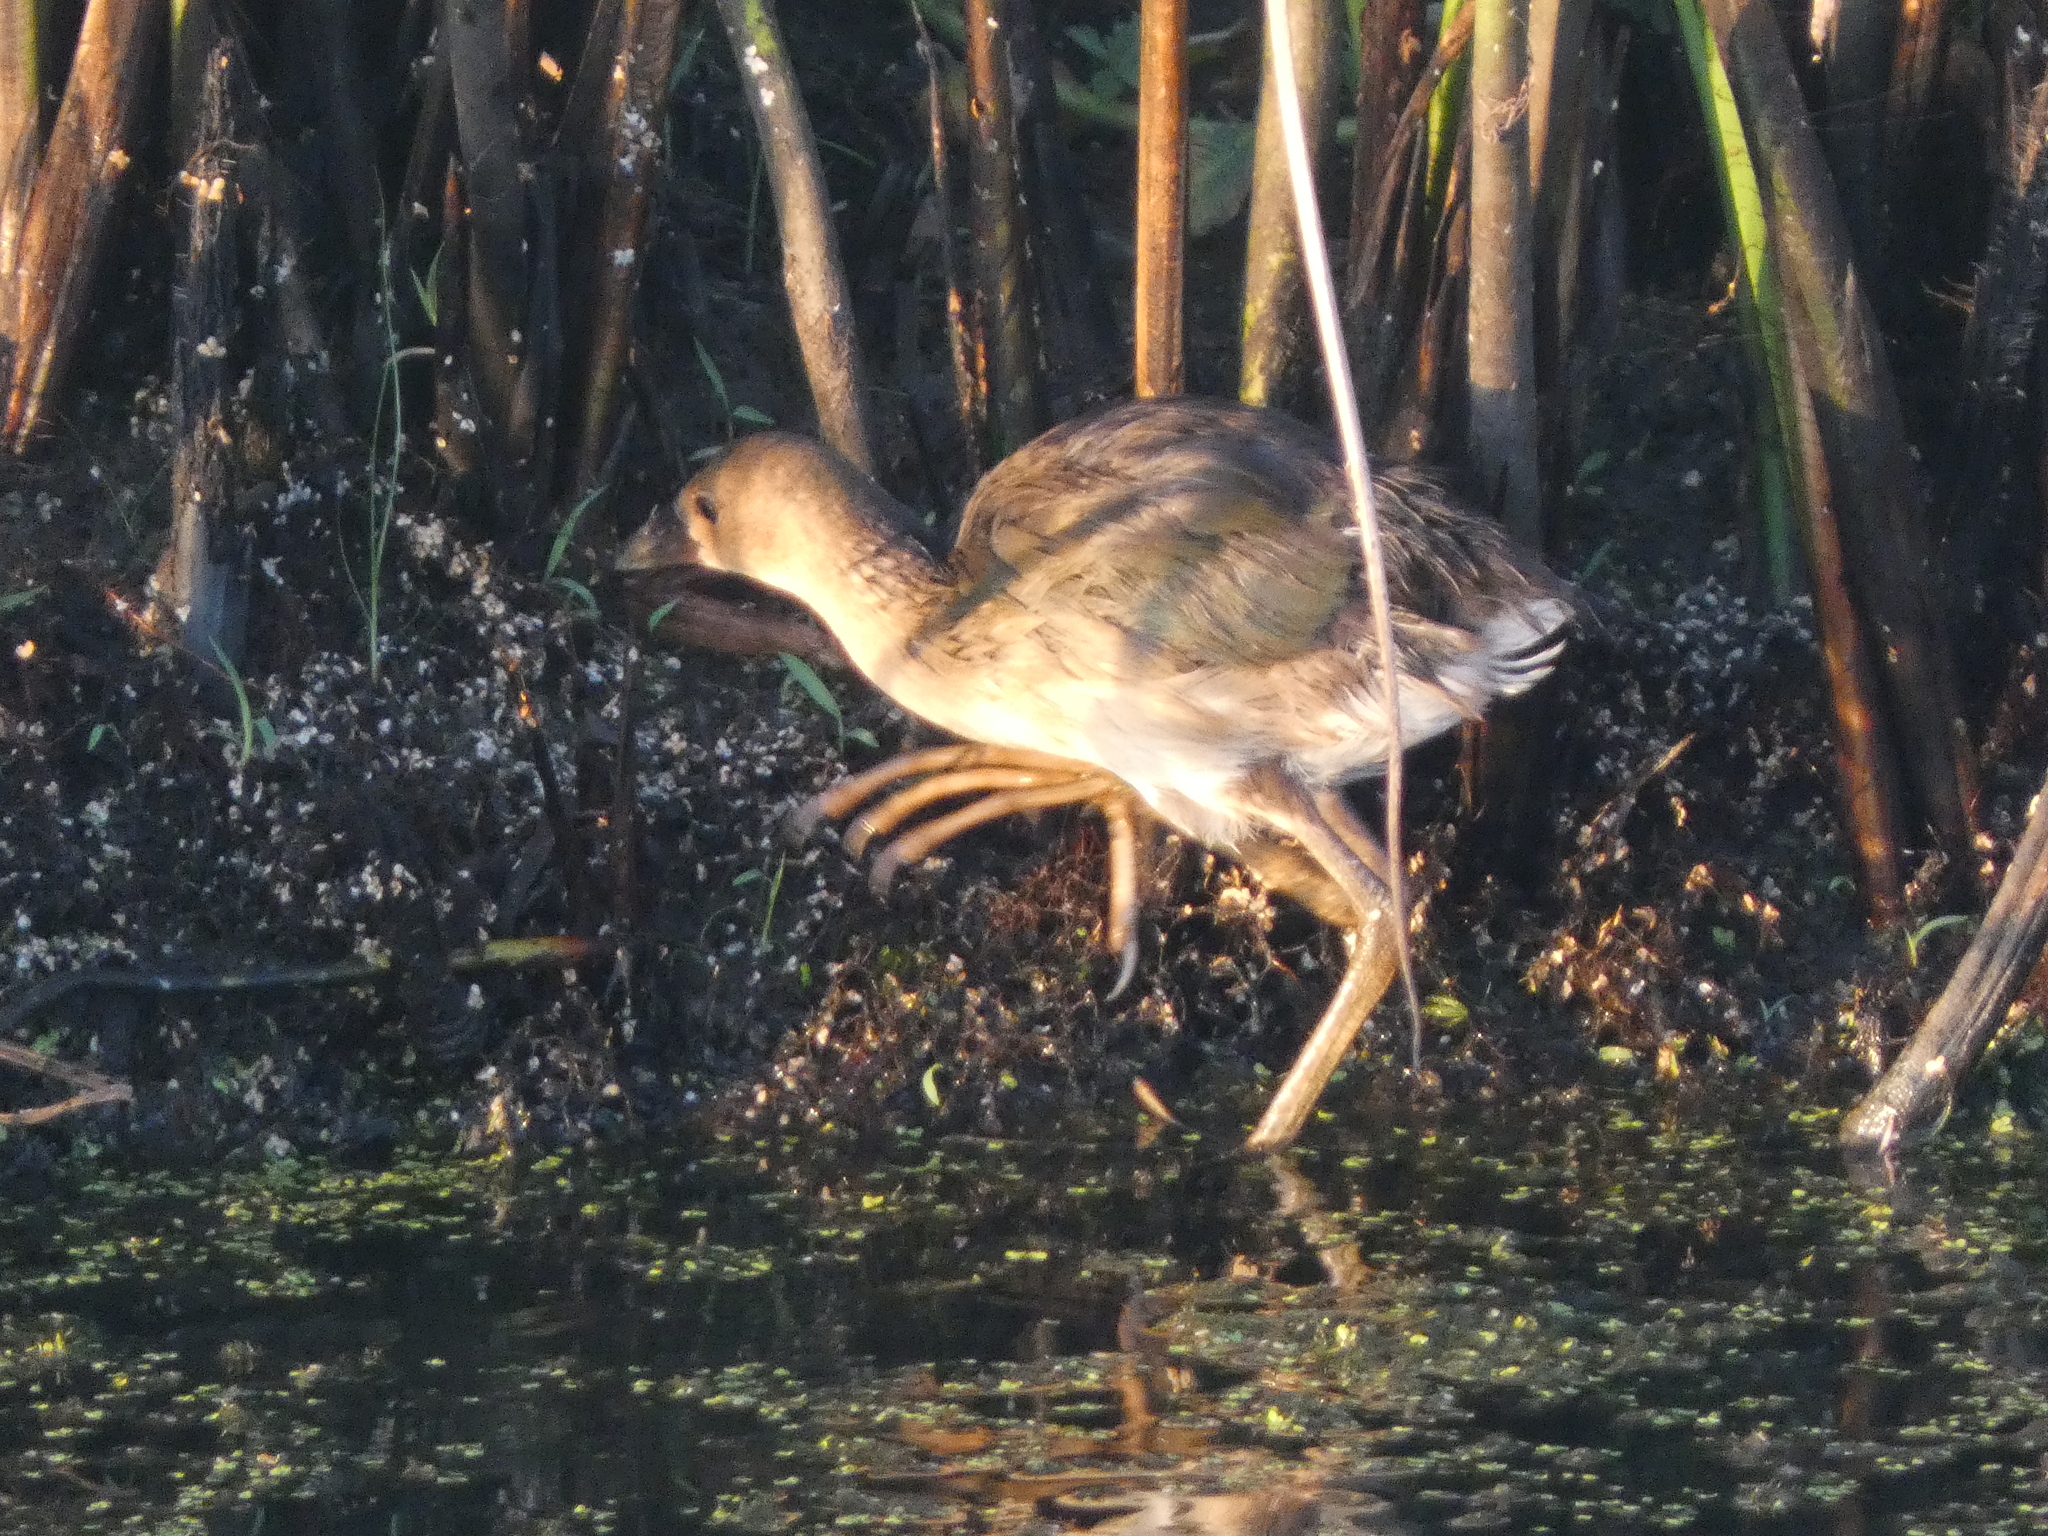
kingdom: Animalia
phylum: Chordata
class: Aves
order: Gruiformes
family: Rallidae
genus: Porphyrio
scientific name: Porphyrio martinica
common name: Purple gallinule
